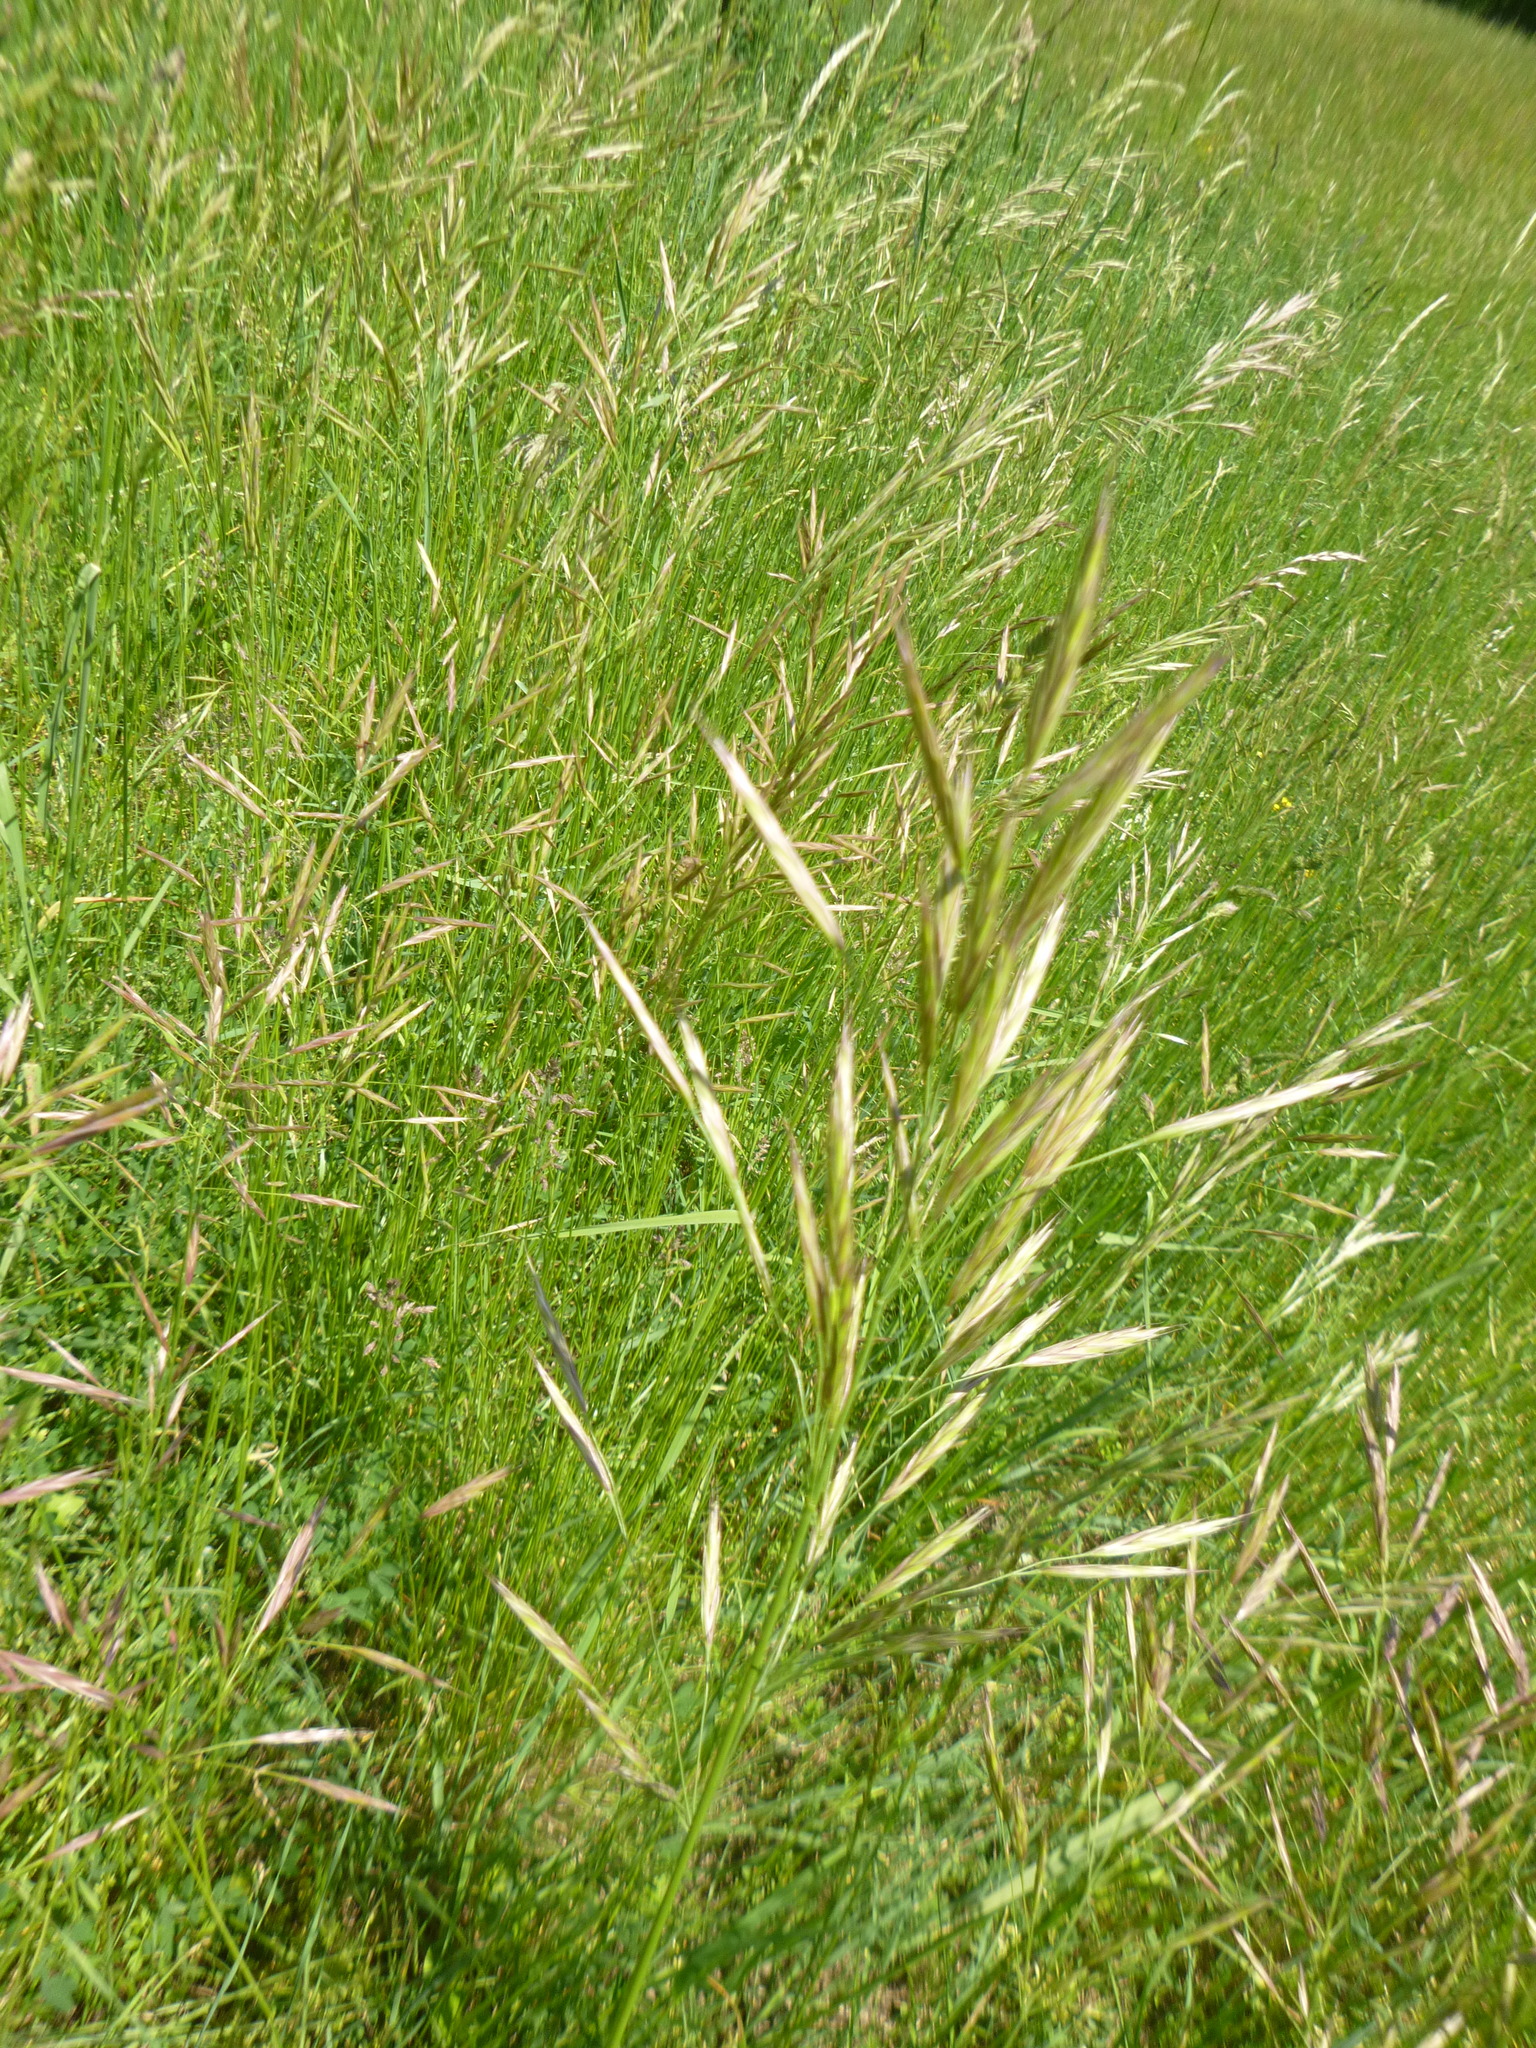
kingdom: Plantae
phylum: Tracheophyta
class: Liliopsida
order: Poales
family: Poaceae
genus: Bromus
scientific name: Bromus erectus
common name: Erect brome
